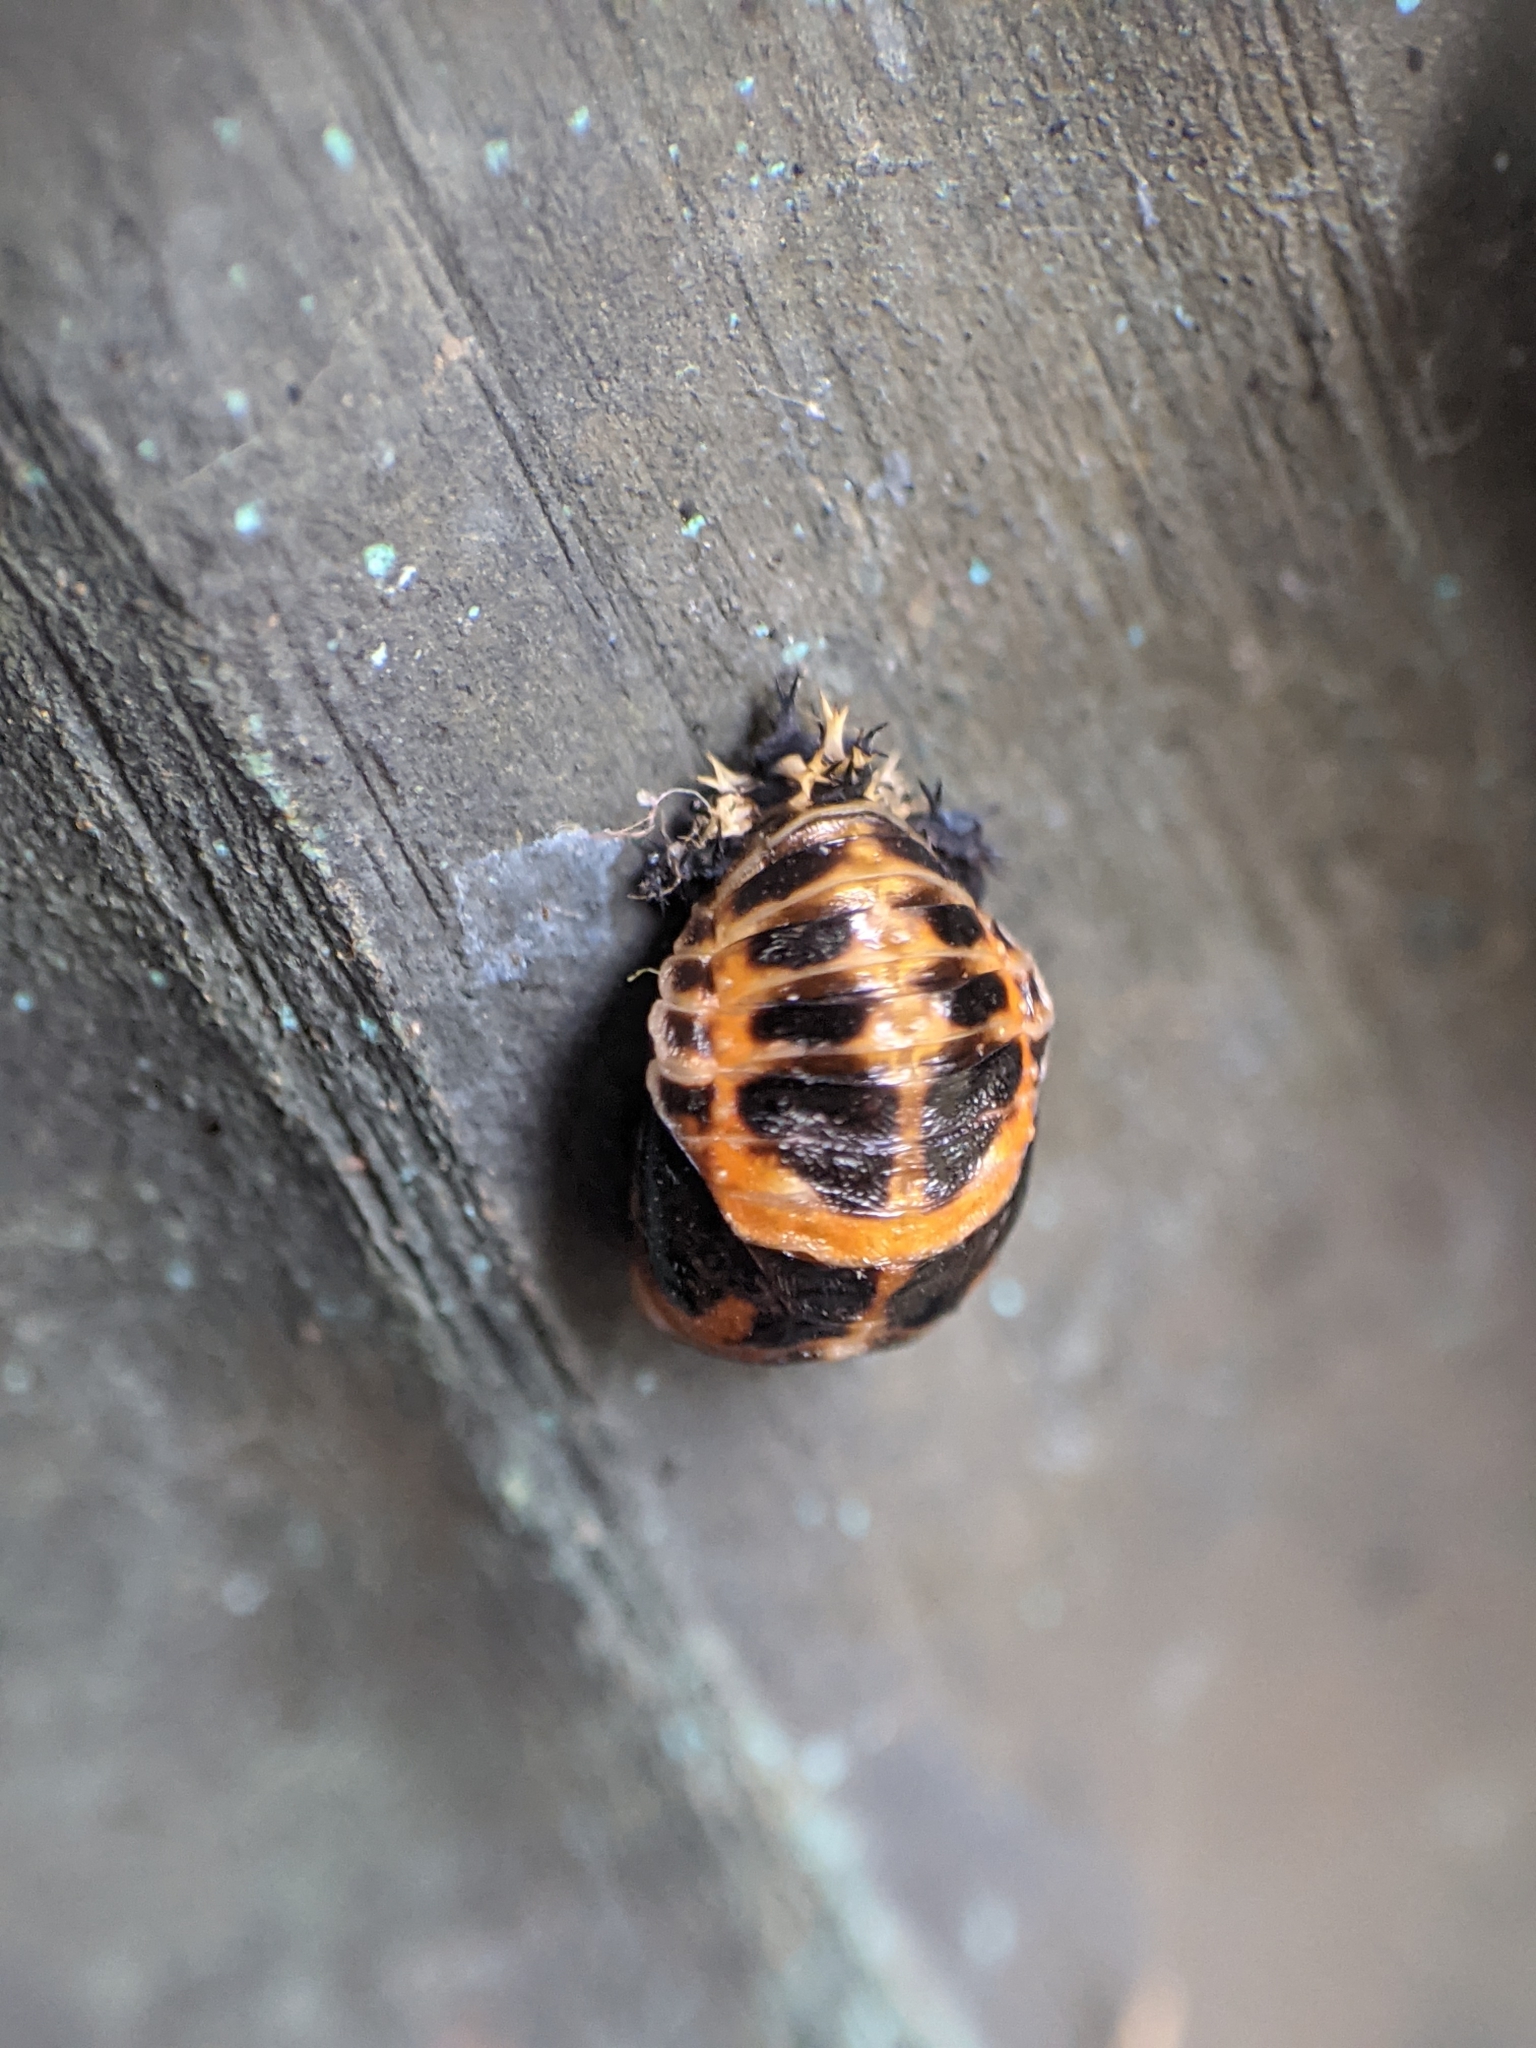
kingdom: Animalia
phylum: Arthropoda
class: Insecta
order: Coleoptera
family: Coccinellidae
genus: Harmonia
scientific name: Harmonia axyridis
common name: Harlequin ladybird
